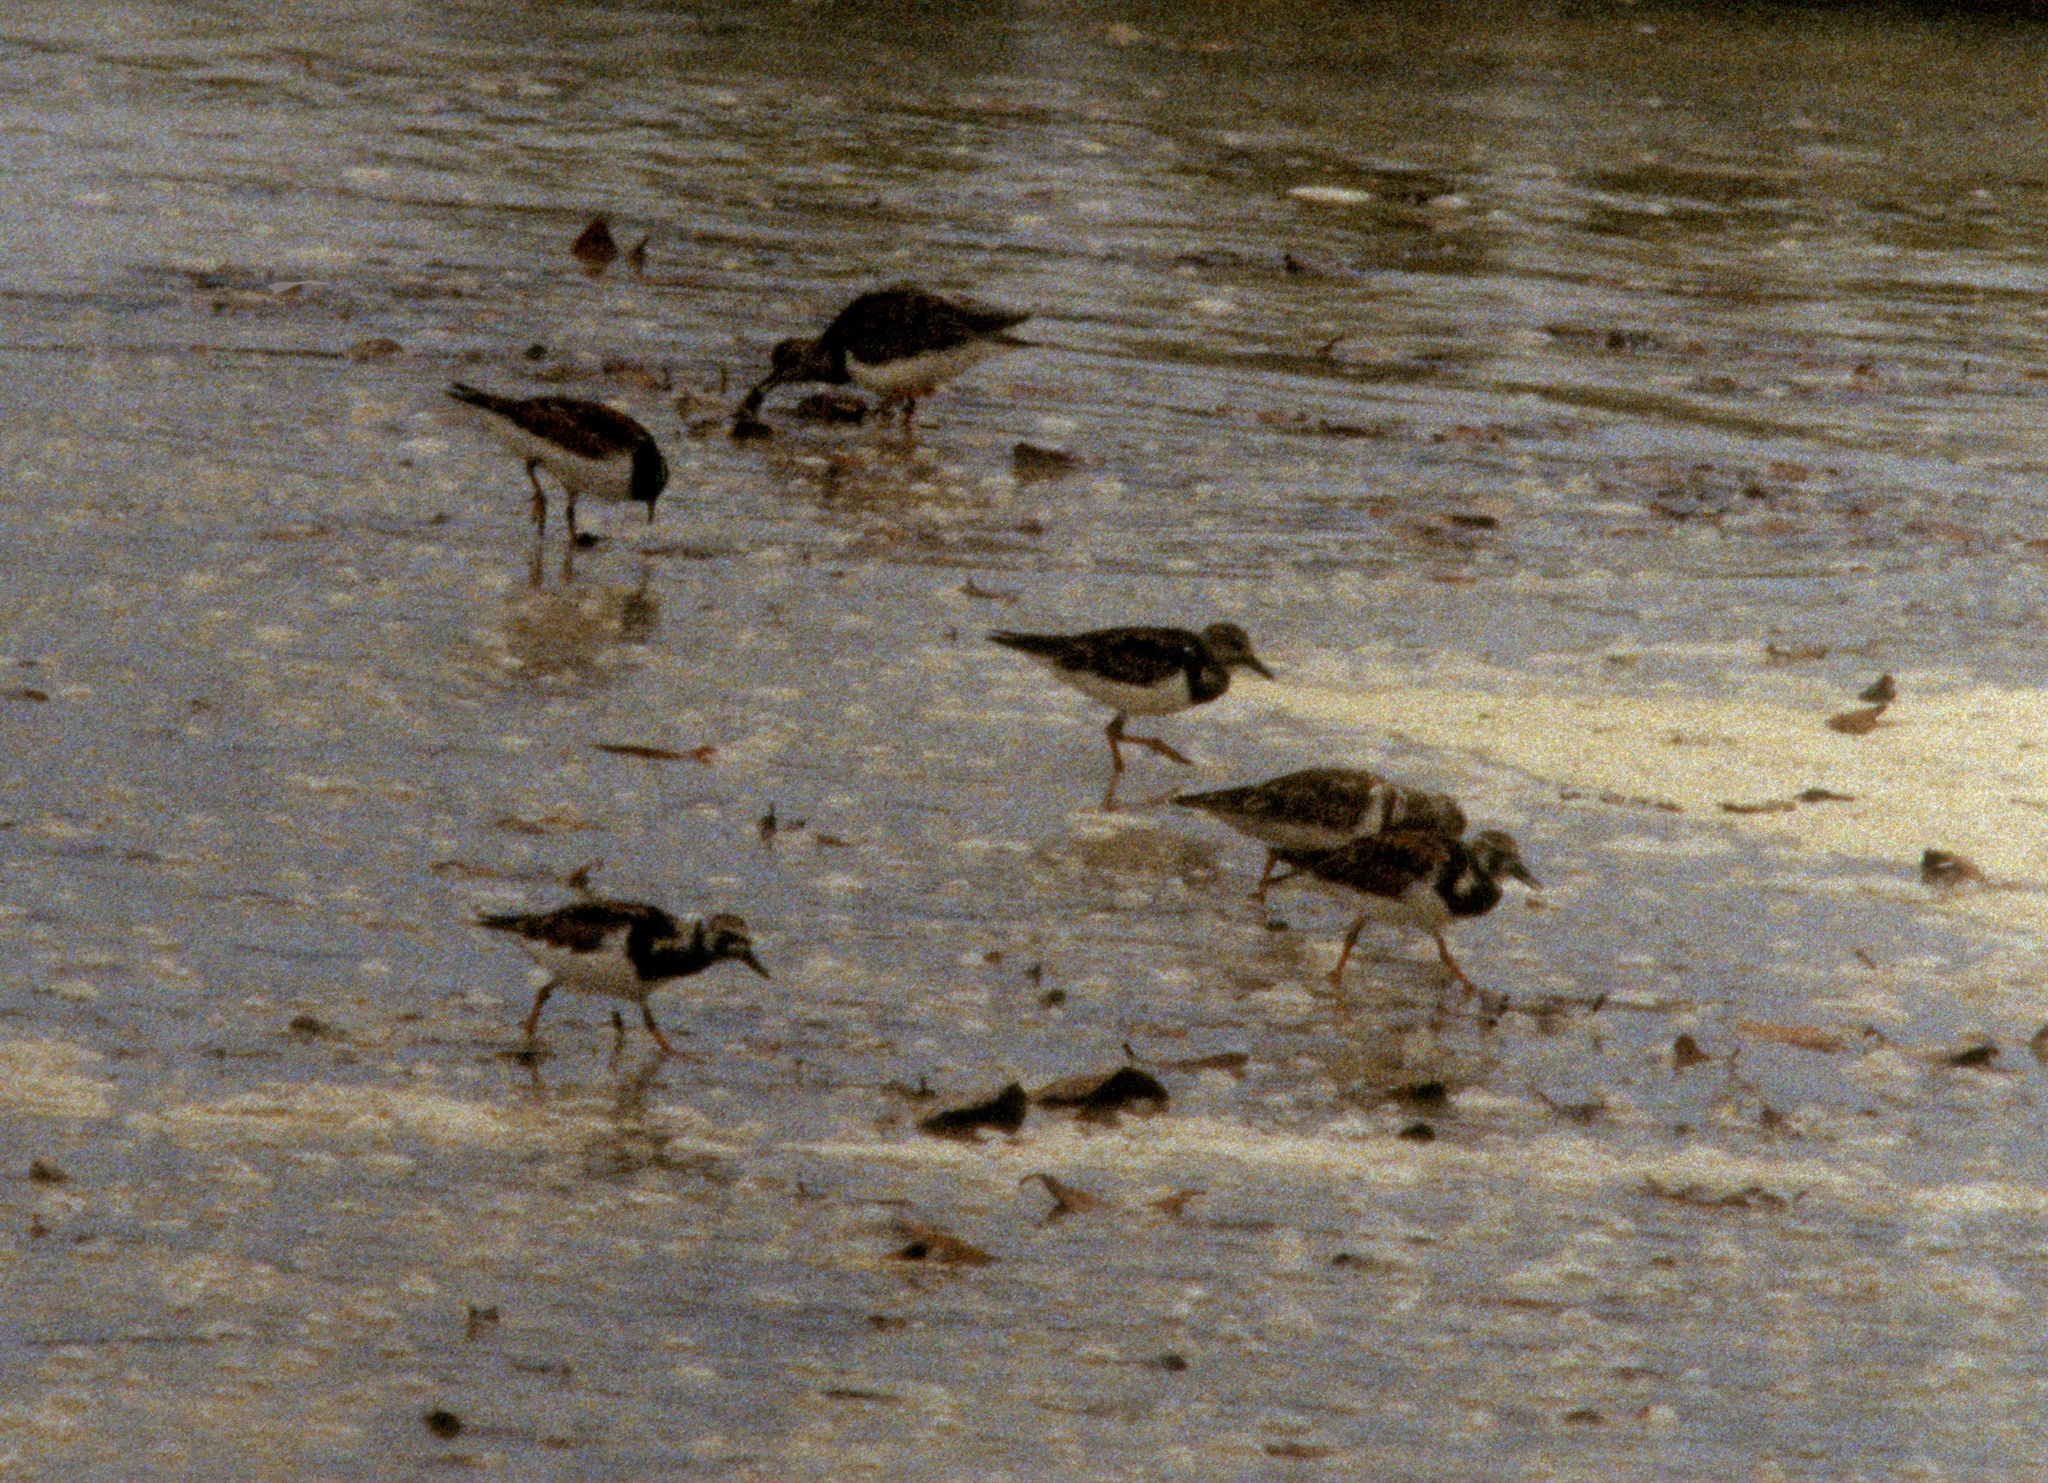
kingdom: Animalia
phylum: Chordata
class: Aves
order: Charadriiformes
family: Scolopacidae
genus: Arenaria
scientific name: Arenaria interpres
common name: Ruddy turnstone
